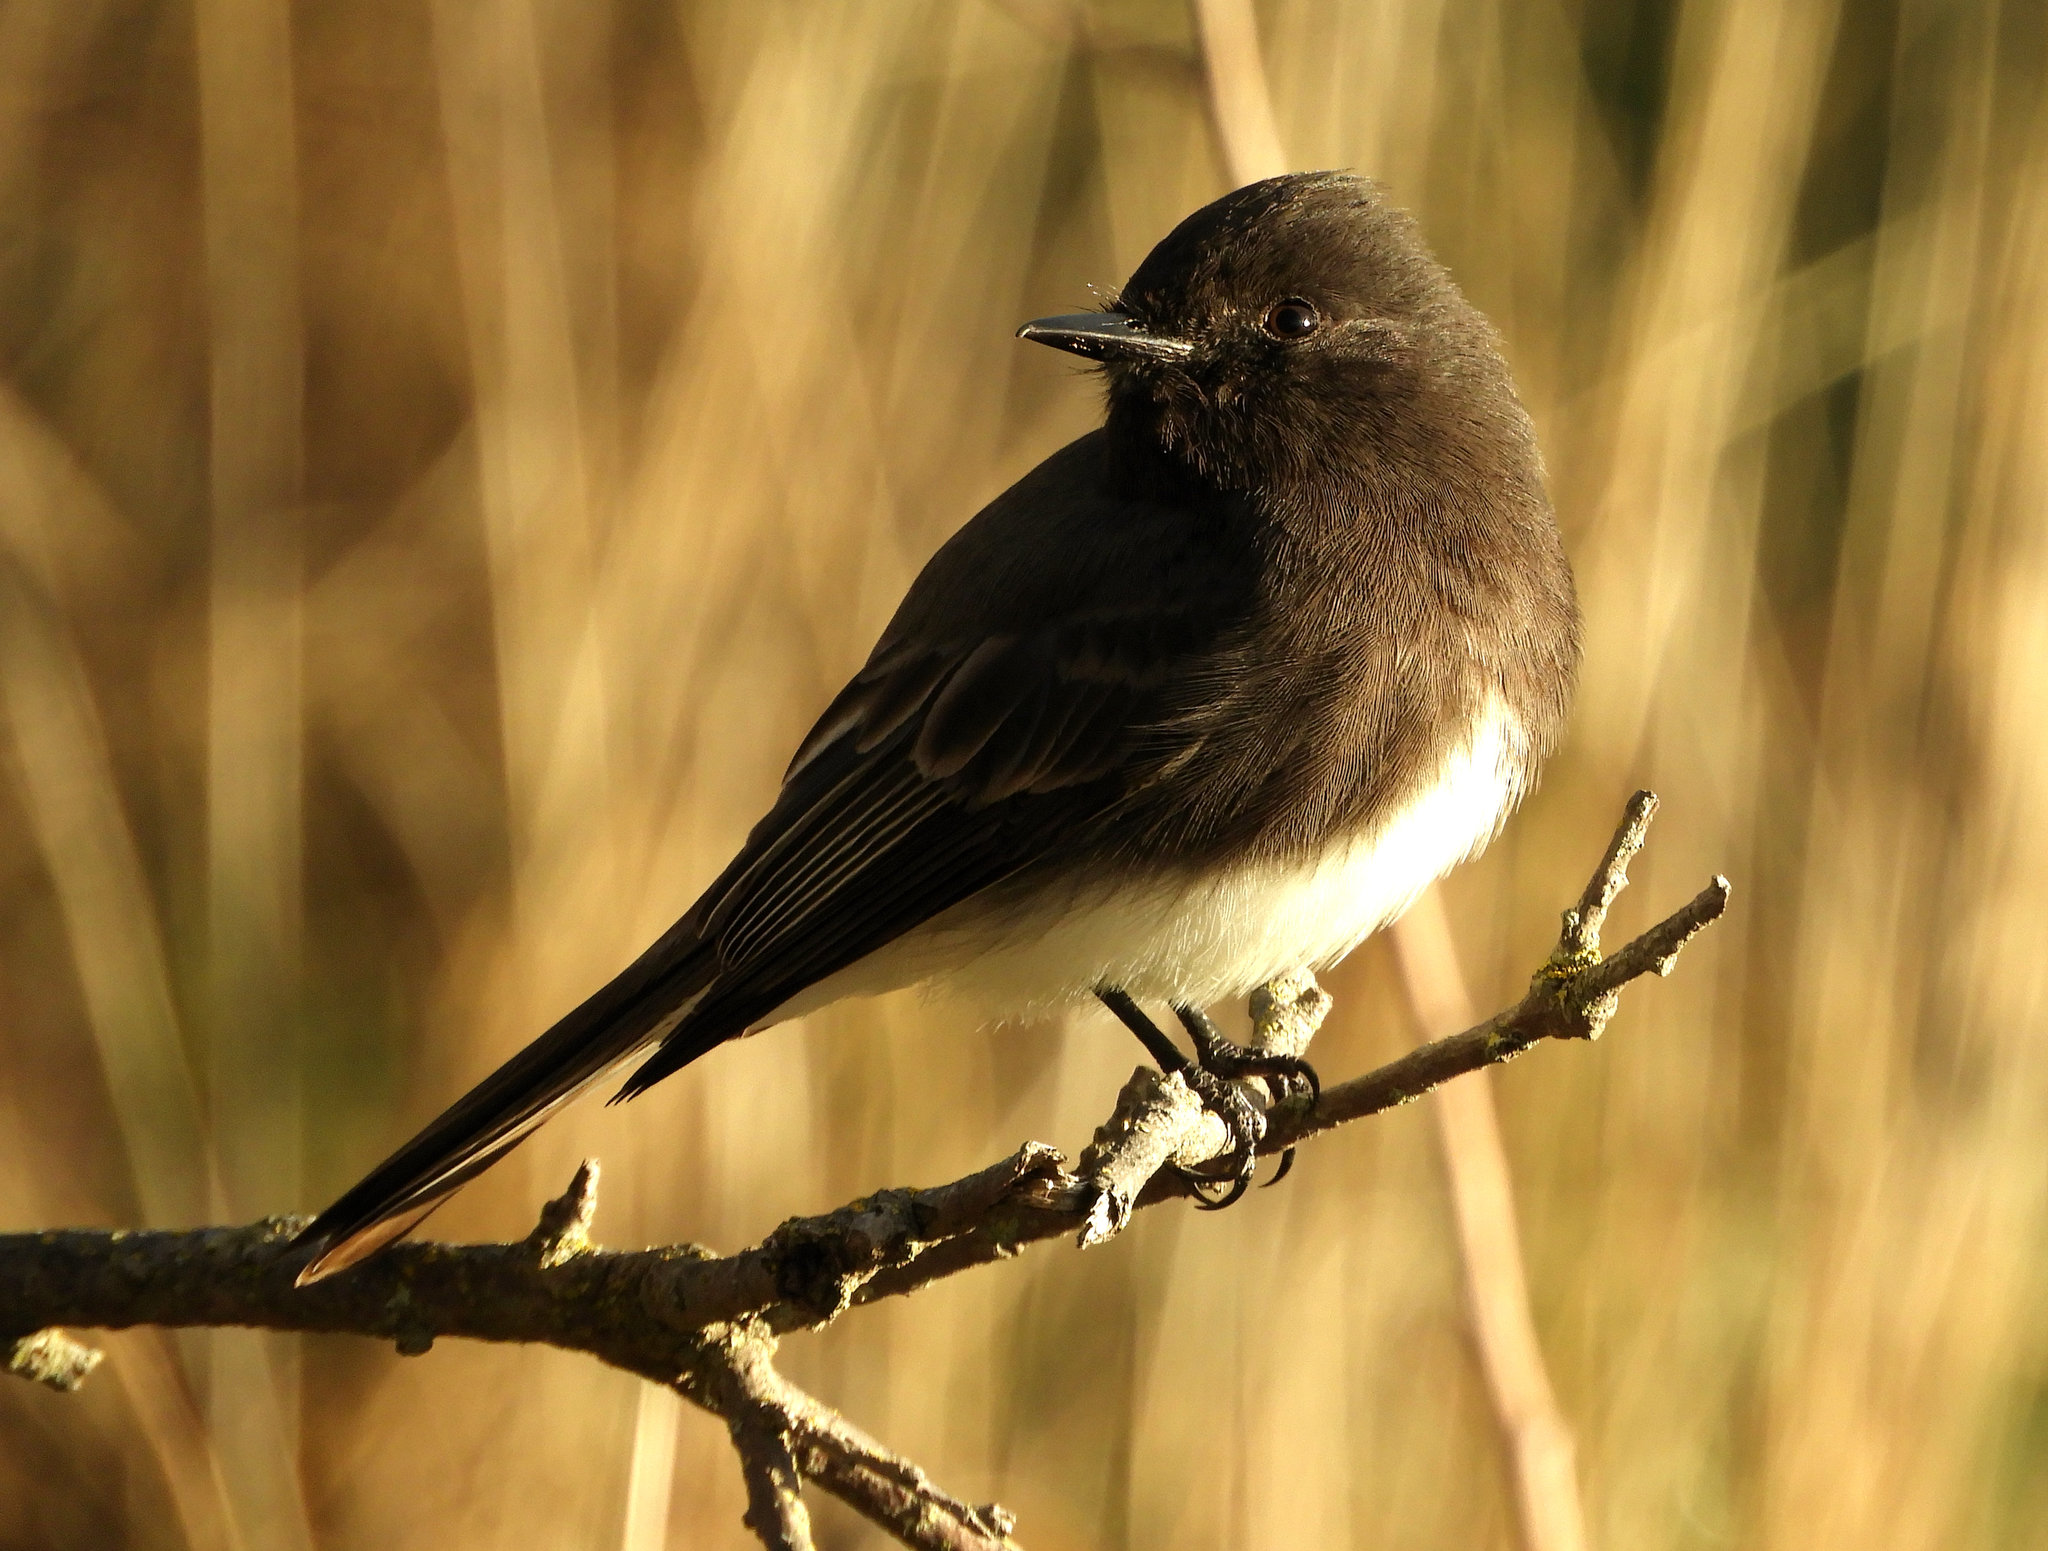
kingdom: Animalia
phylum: Chordata
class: Aves
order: Passeriformes
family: Tyrannidae
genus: Sayornis
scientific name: Sayornis nigricans
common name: Black phoebe
